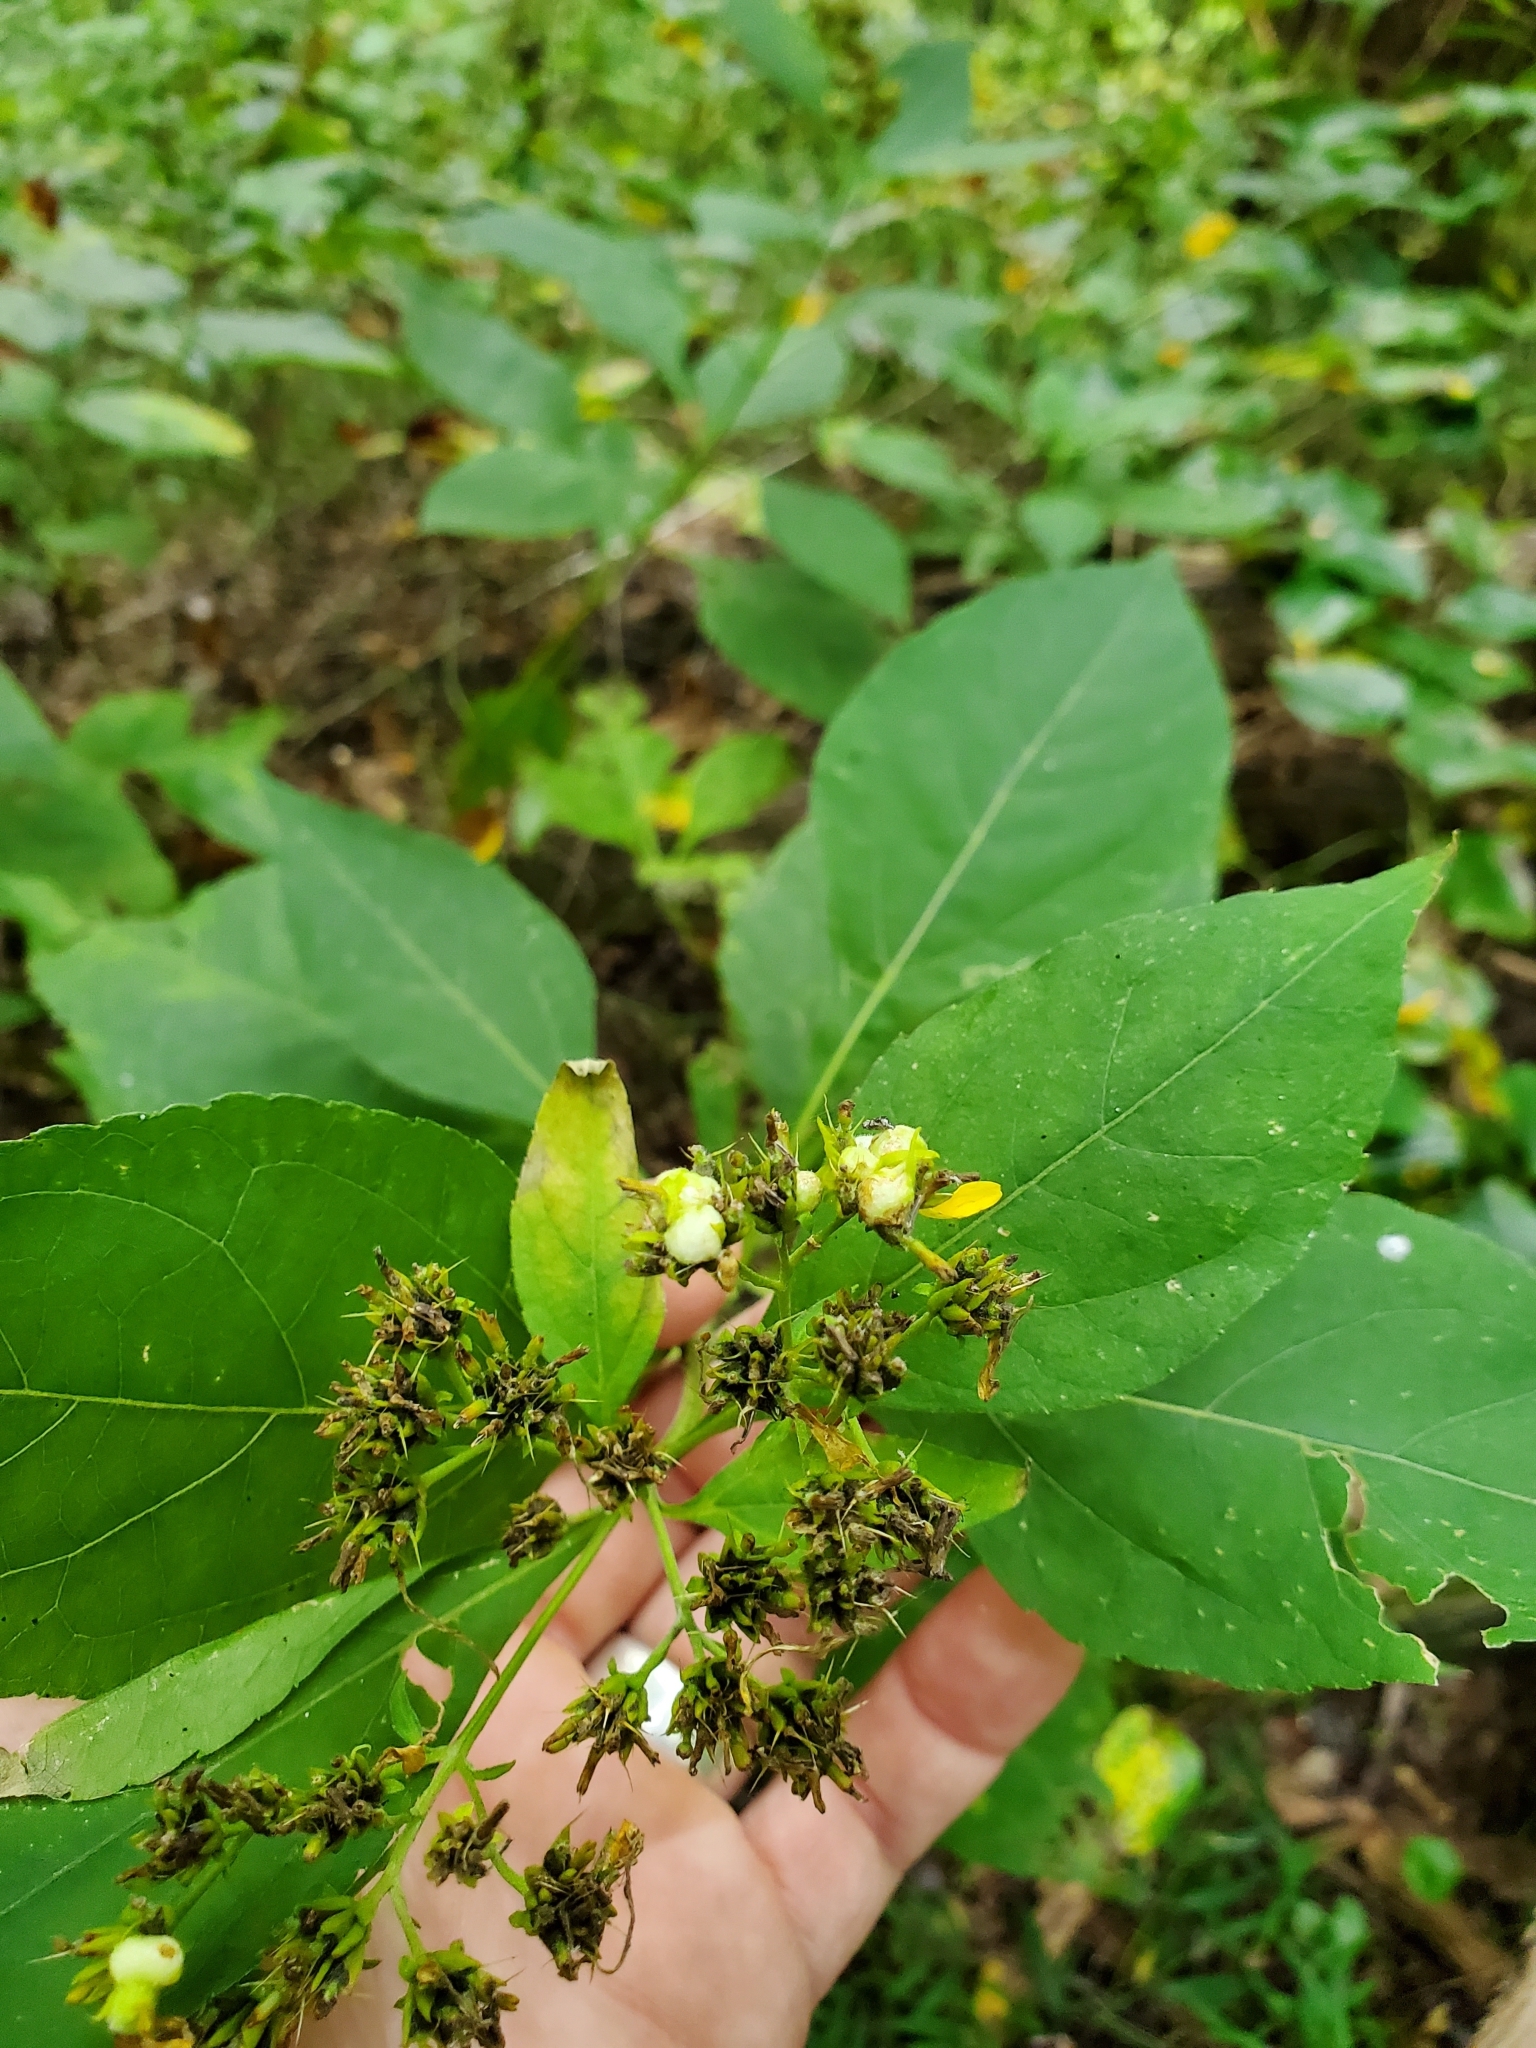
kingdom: Animalia
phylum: Arthropoda
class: Insecta
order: Diptera
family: Cecidomyiidae
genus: Schizomyia
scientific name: Schizomyia
